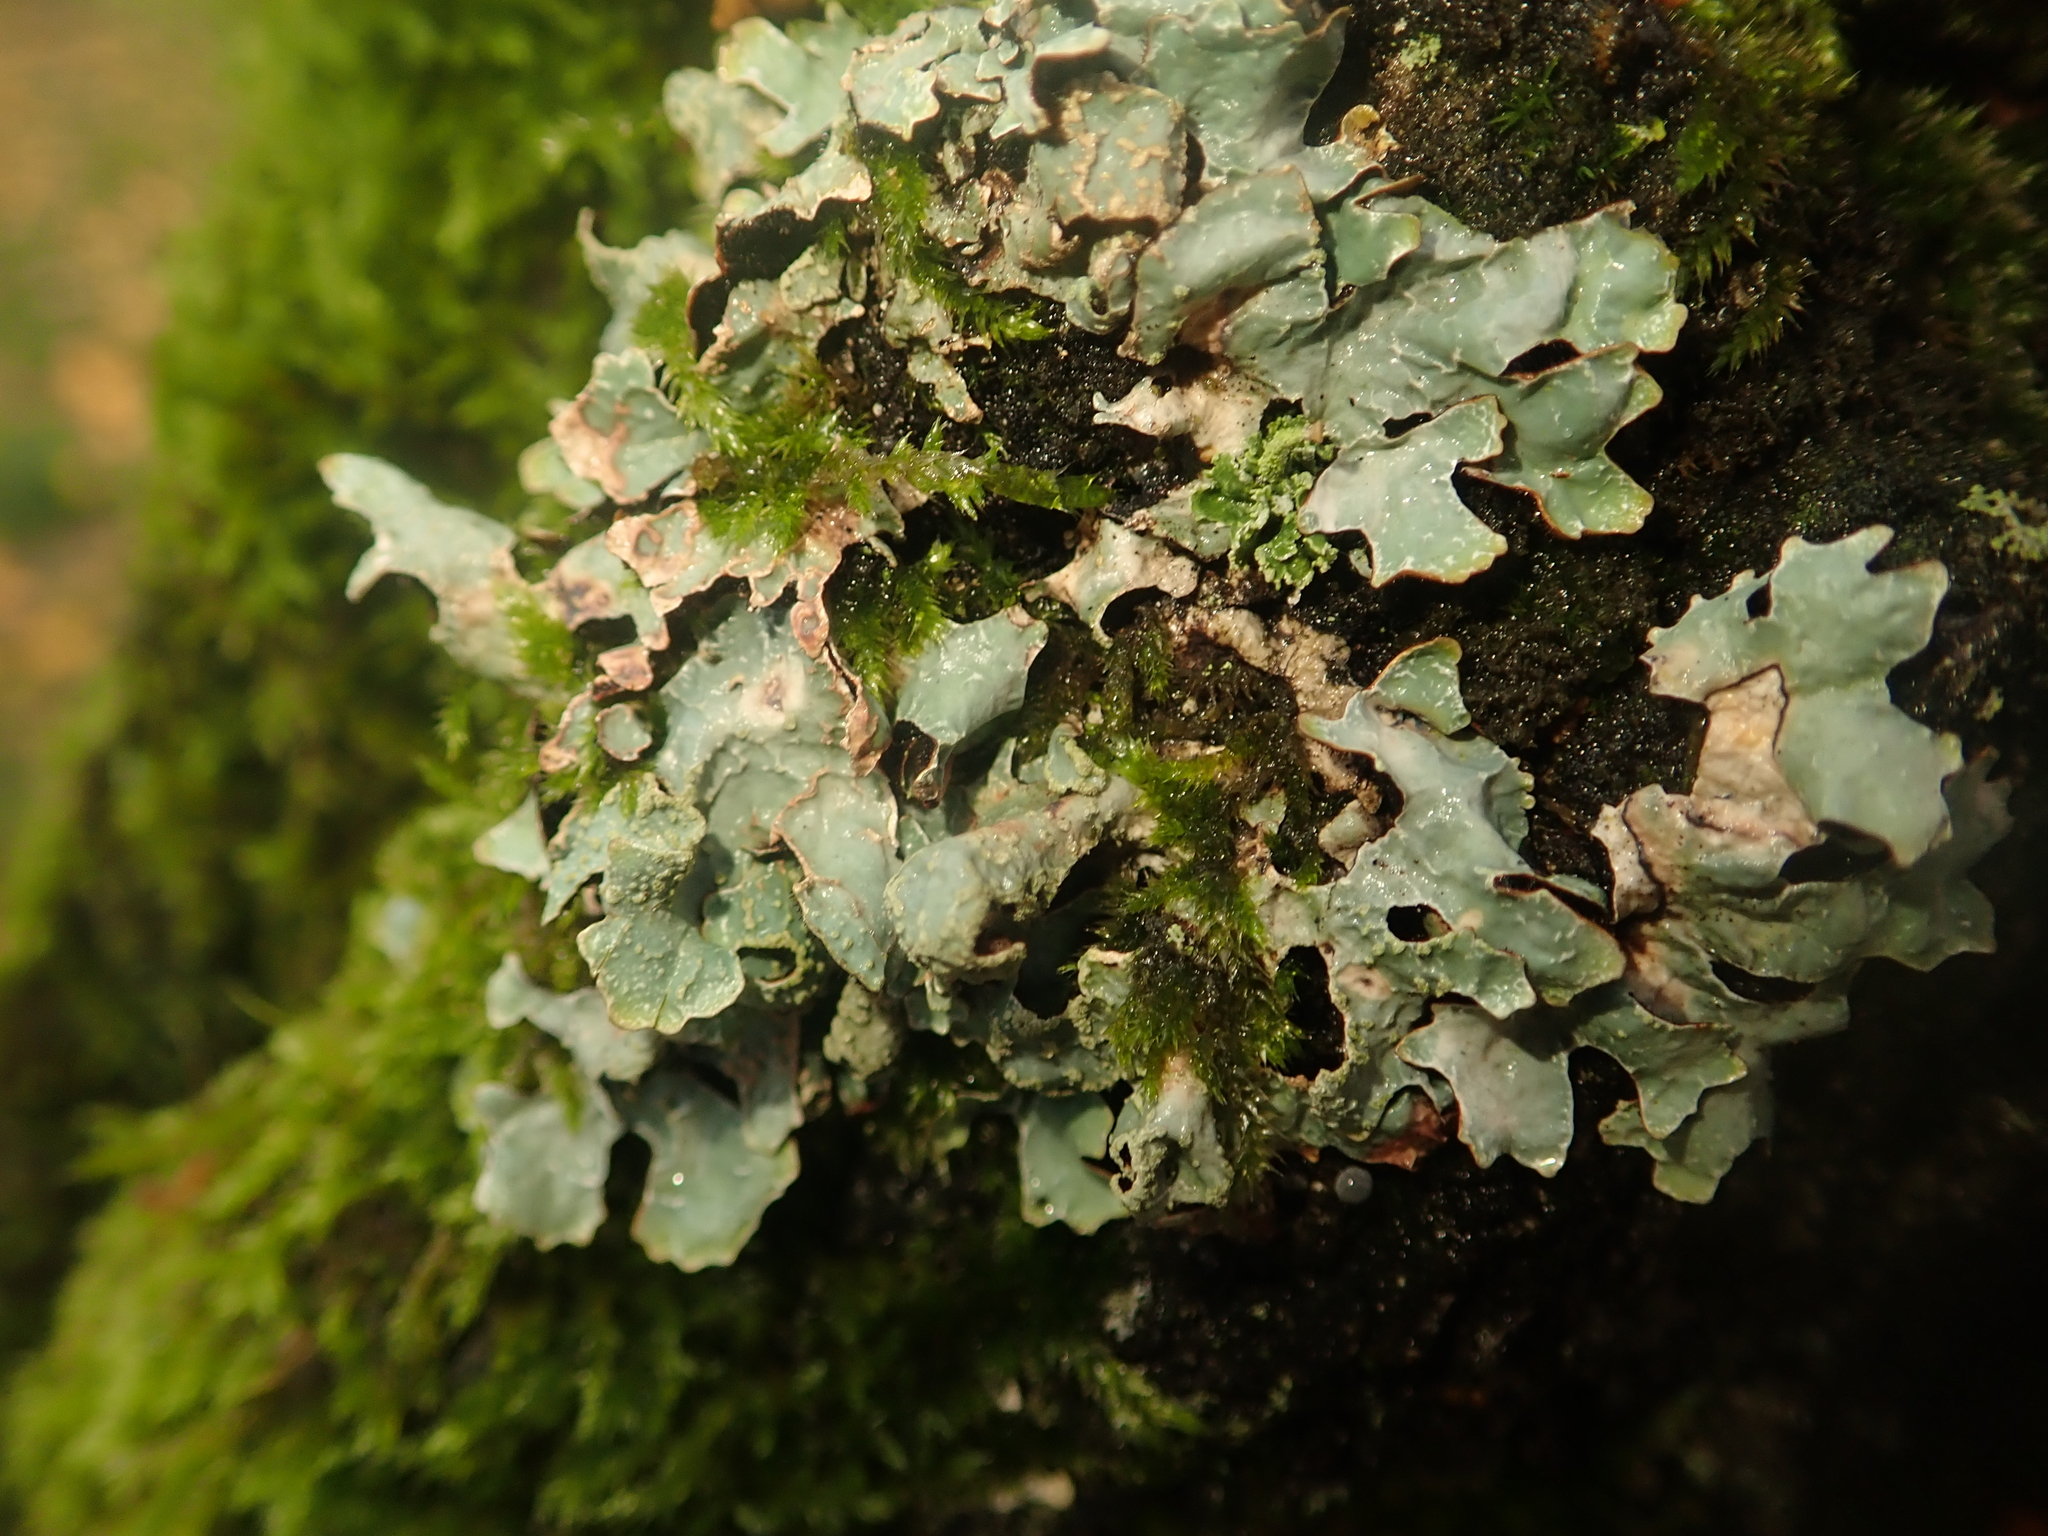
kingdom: Fungi
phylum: Ascomycota
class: Lecanoromycetes
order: Lecanorales
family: Parmeliaceae
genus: Parmelia
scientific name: Parmelia sulcata
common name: Netted shield lichen
